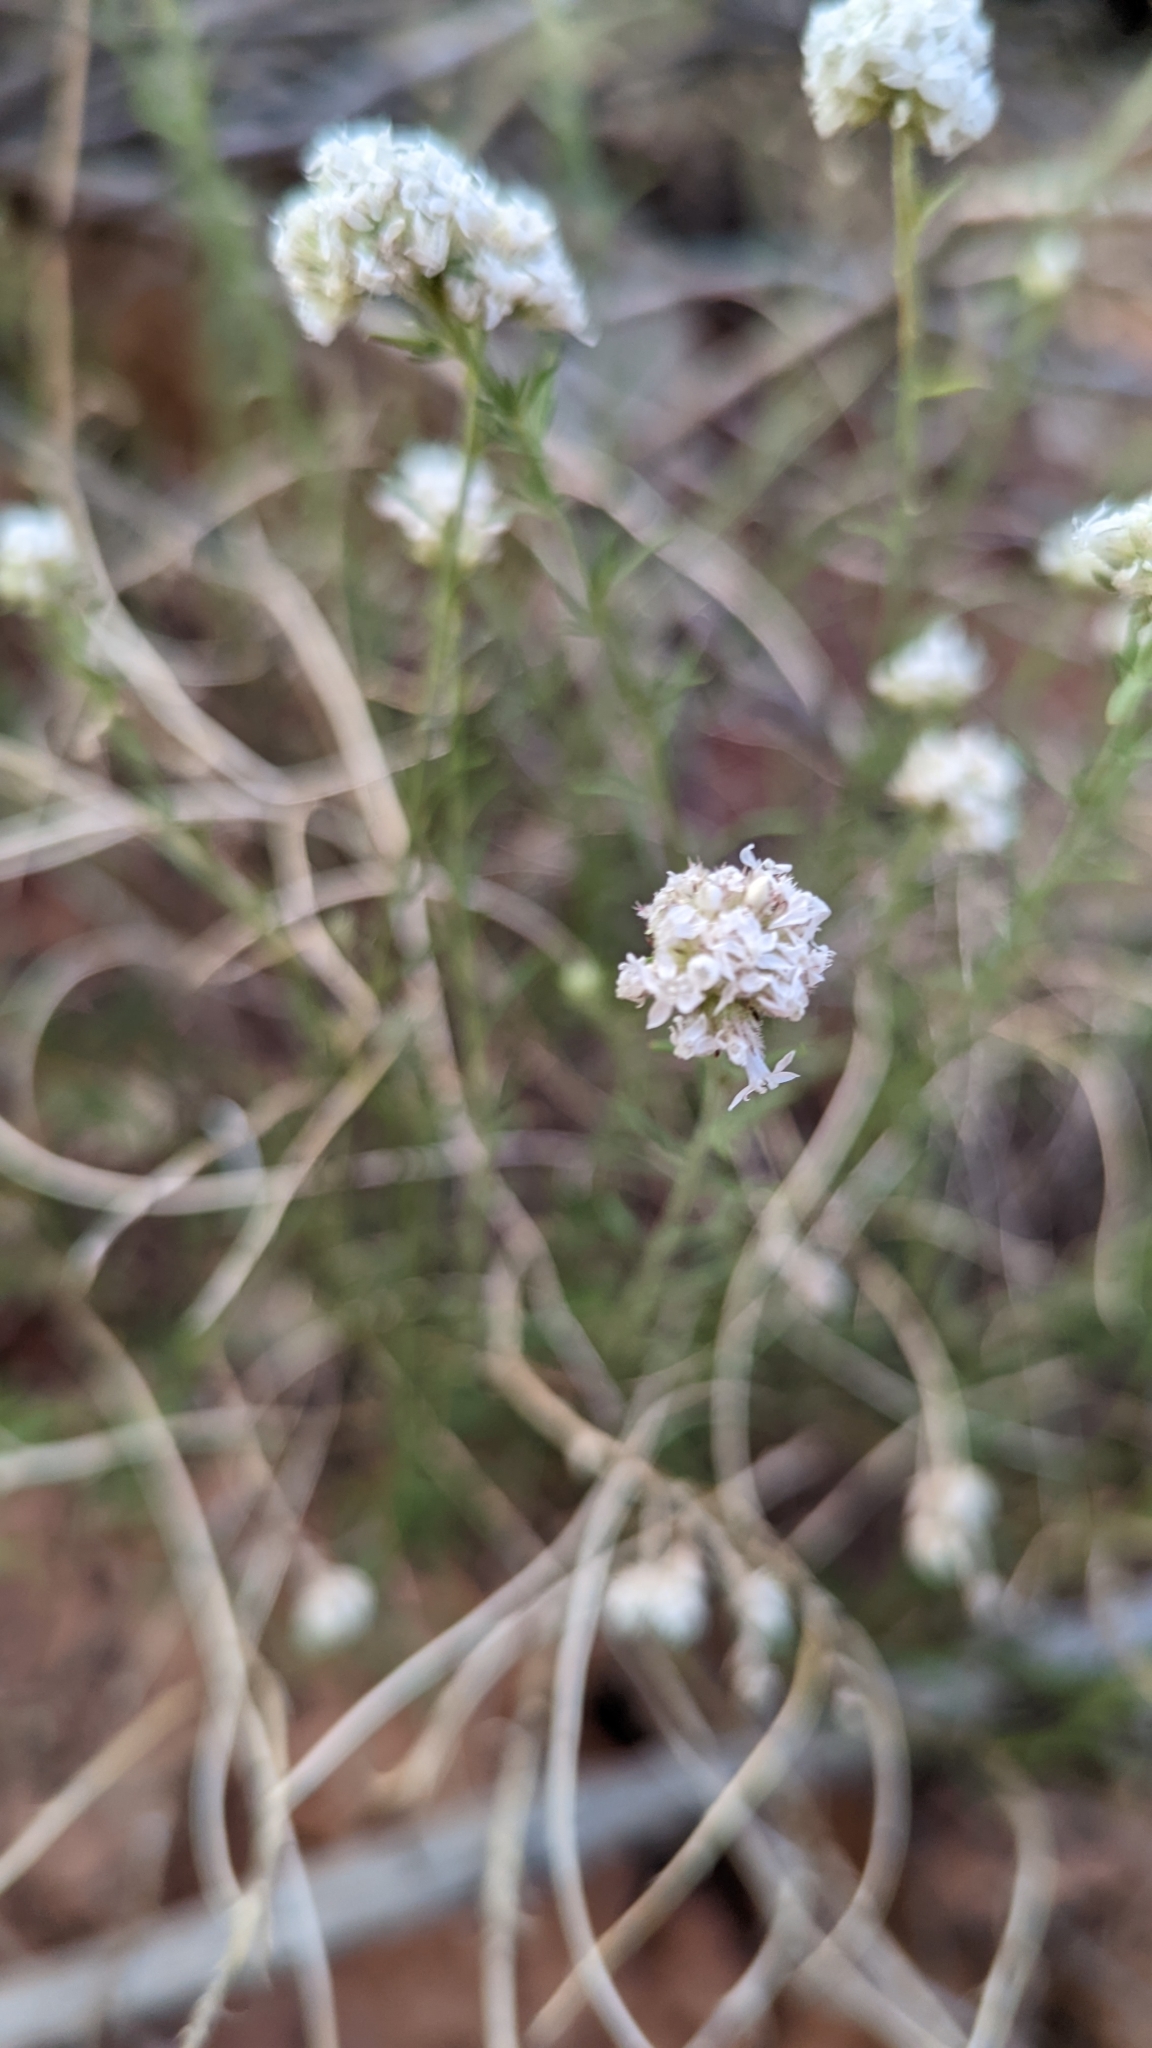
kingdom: Plantae
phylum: Tracheophyta
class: Magnoliopsida
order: Ericales
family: Polemoniaceae
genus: Ipomopsis
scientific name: Ipomopsis congesta
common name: Ball-head gilia
